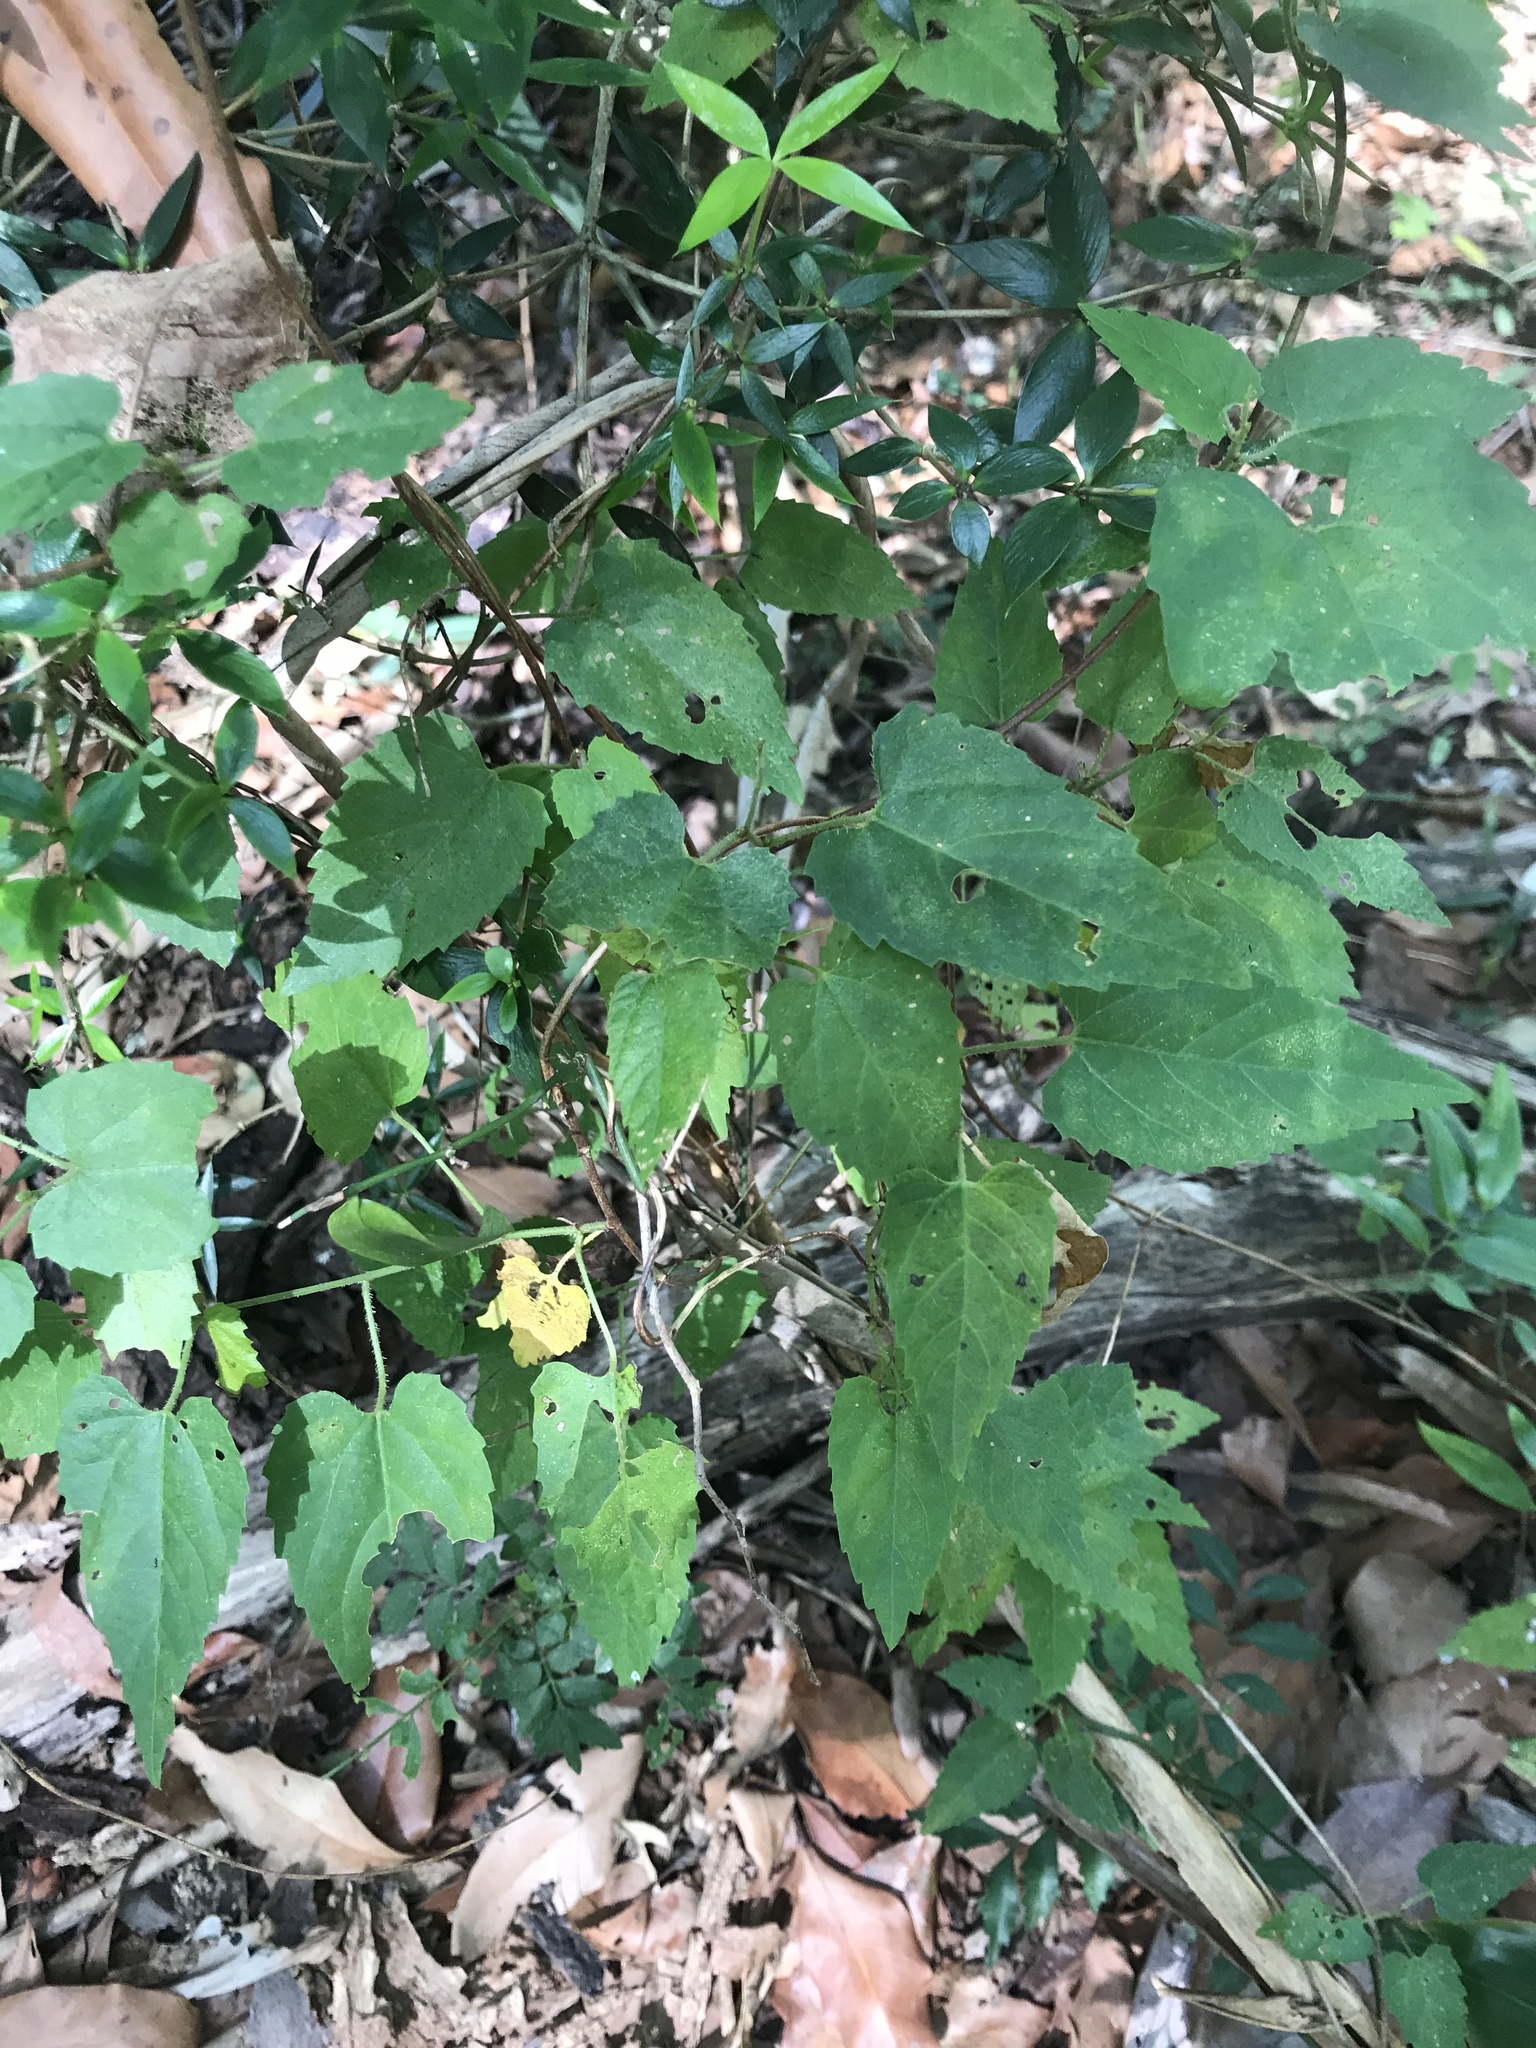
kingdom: Plantae
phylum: Tracheophyta
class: Magnoliopsida
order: Malpighiales
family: Euphorbiaceae
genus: Tragia
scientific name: Tragia novae-hollandiae
